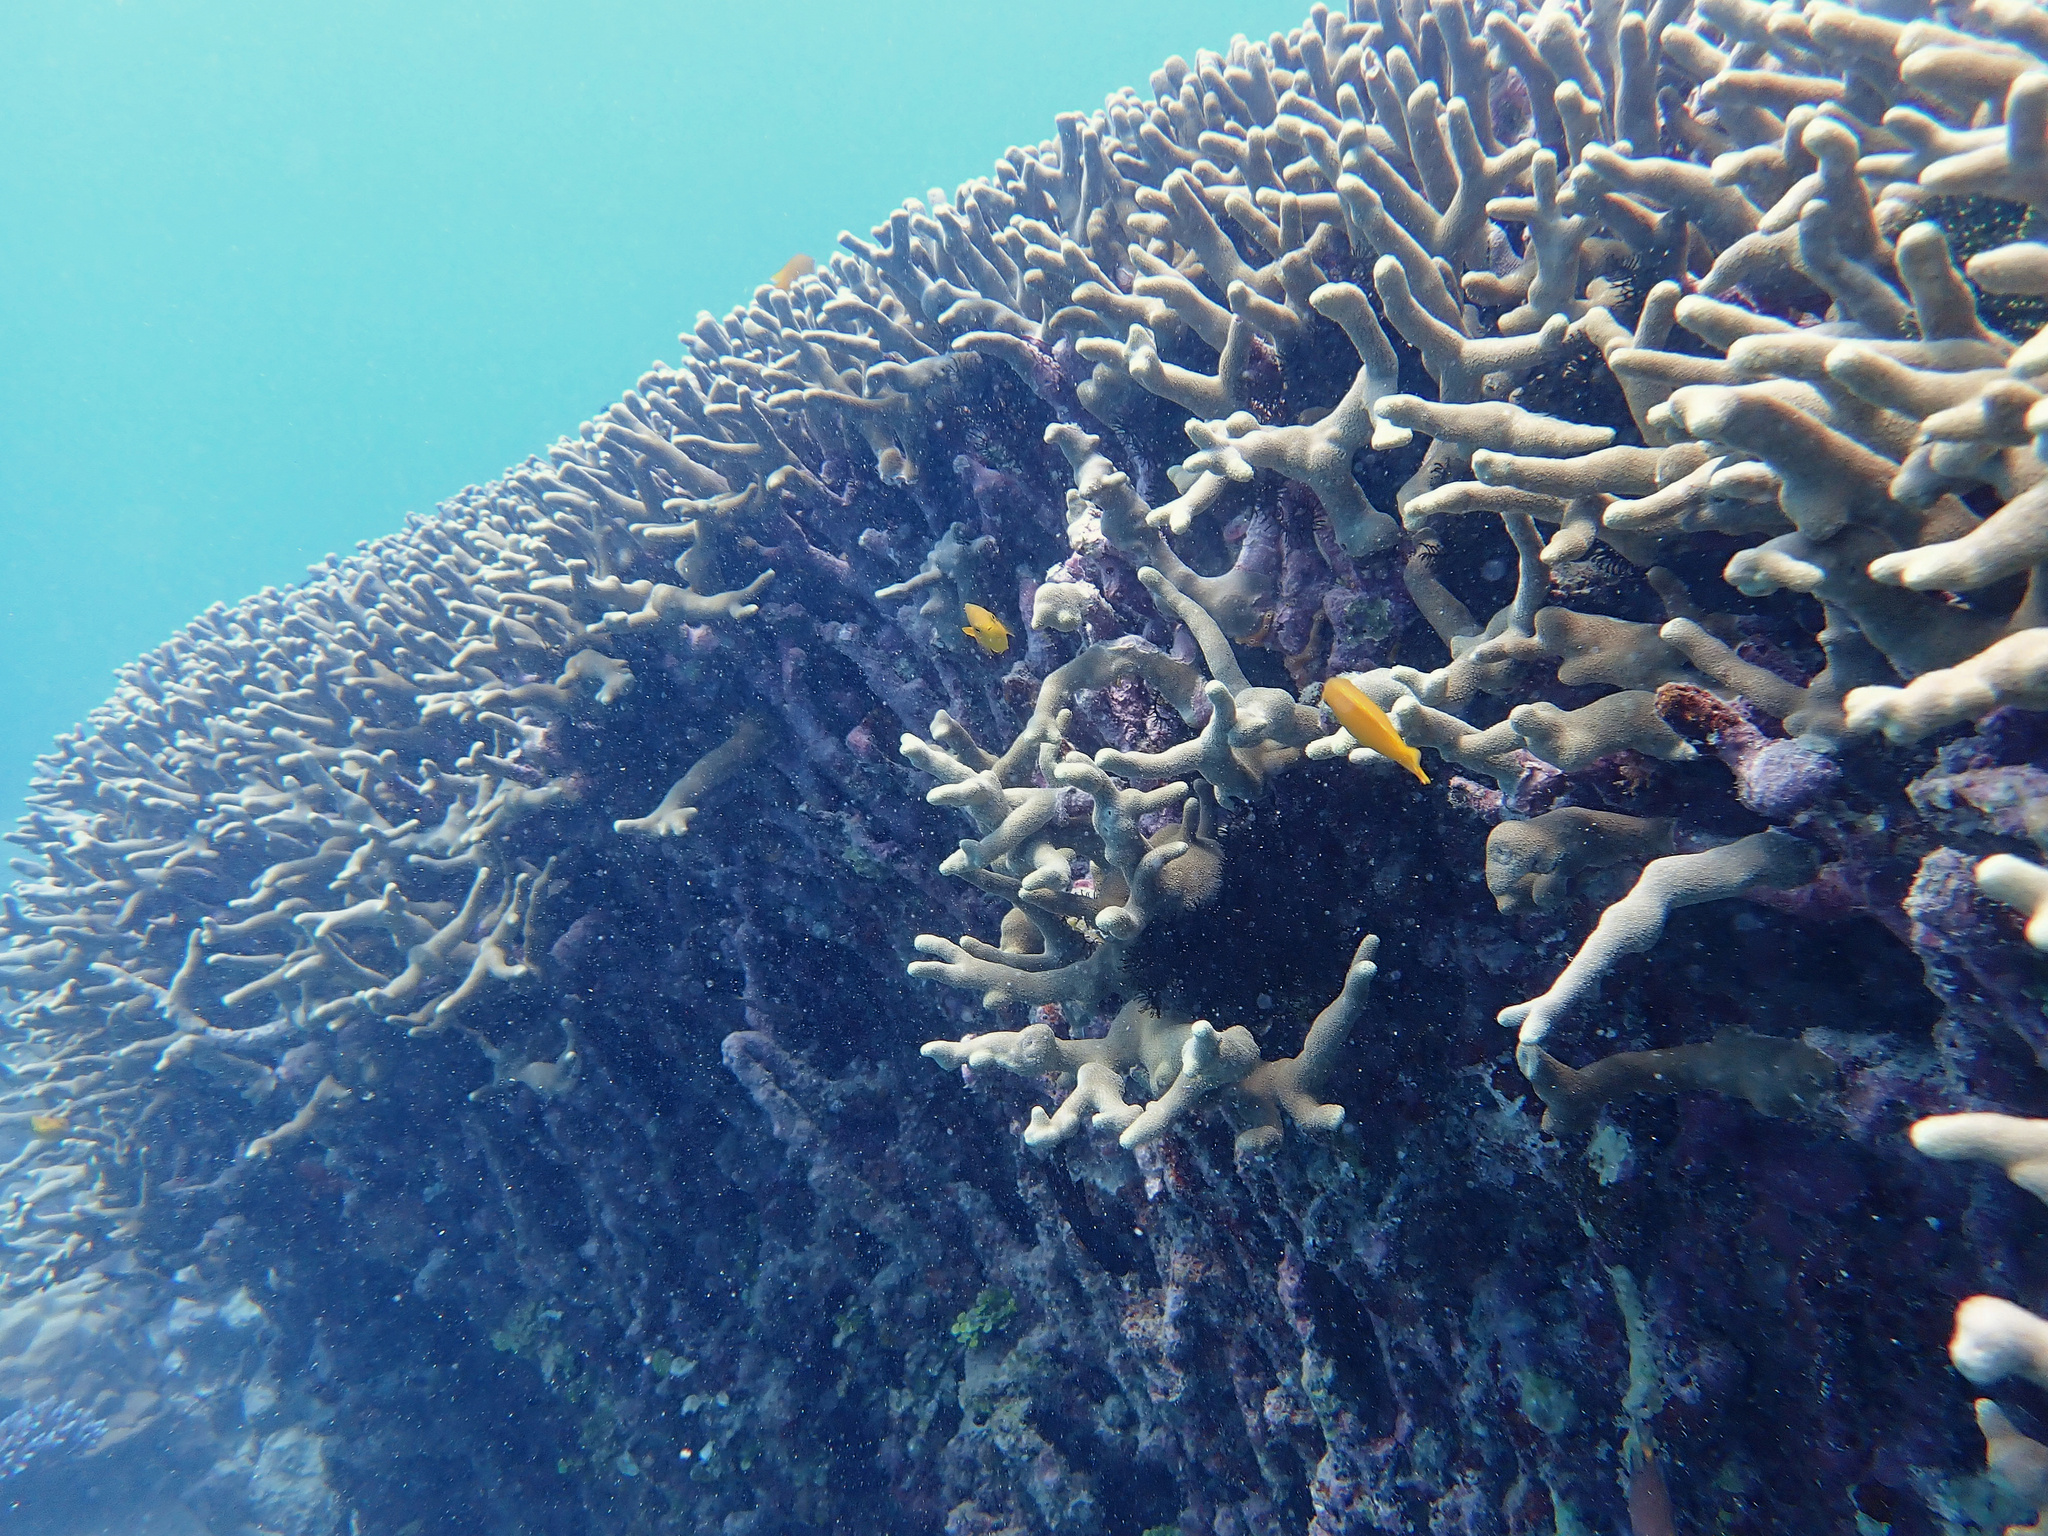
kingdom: Animalia
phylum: Cnidaria
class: Anthozoa
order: Scleractinia
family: Poritidae
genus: Porites
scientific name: Porites cylindrica
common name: Hump coral
